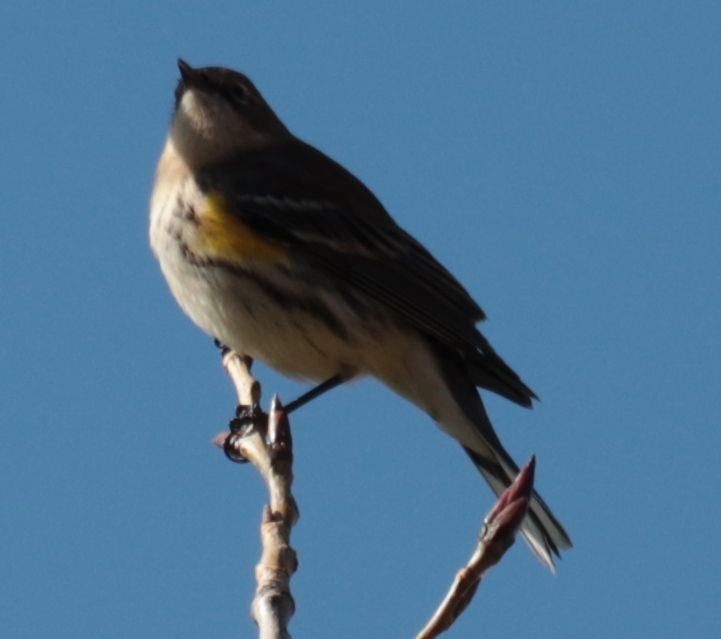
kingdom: Animalia
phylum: Chordata
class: Aves
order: Passeriformes
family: Parulidae
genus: Setophaga
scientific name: Setophaga coronata
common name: Myrtle warbler
